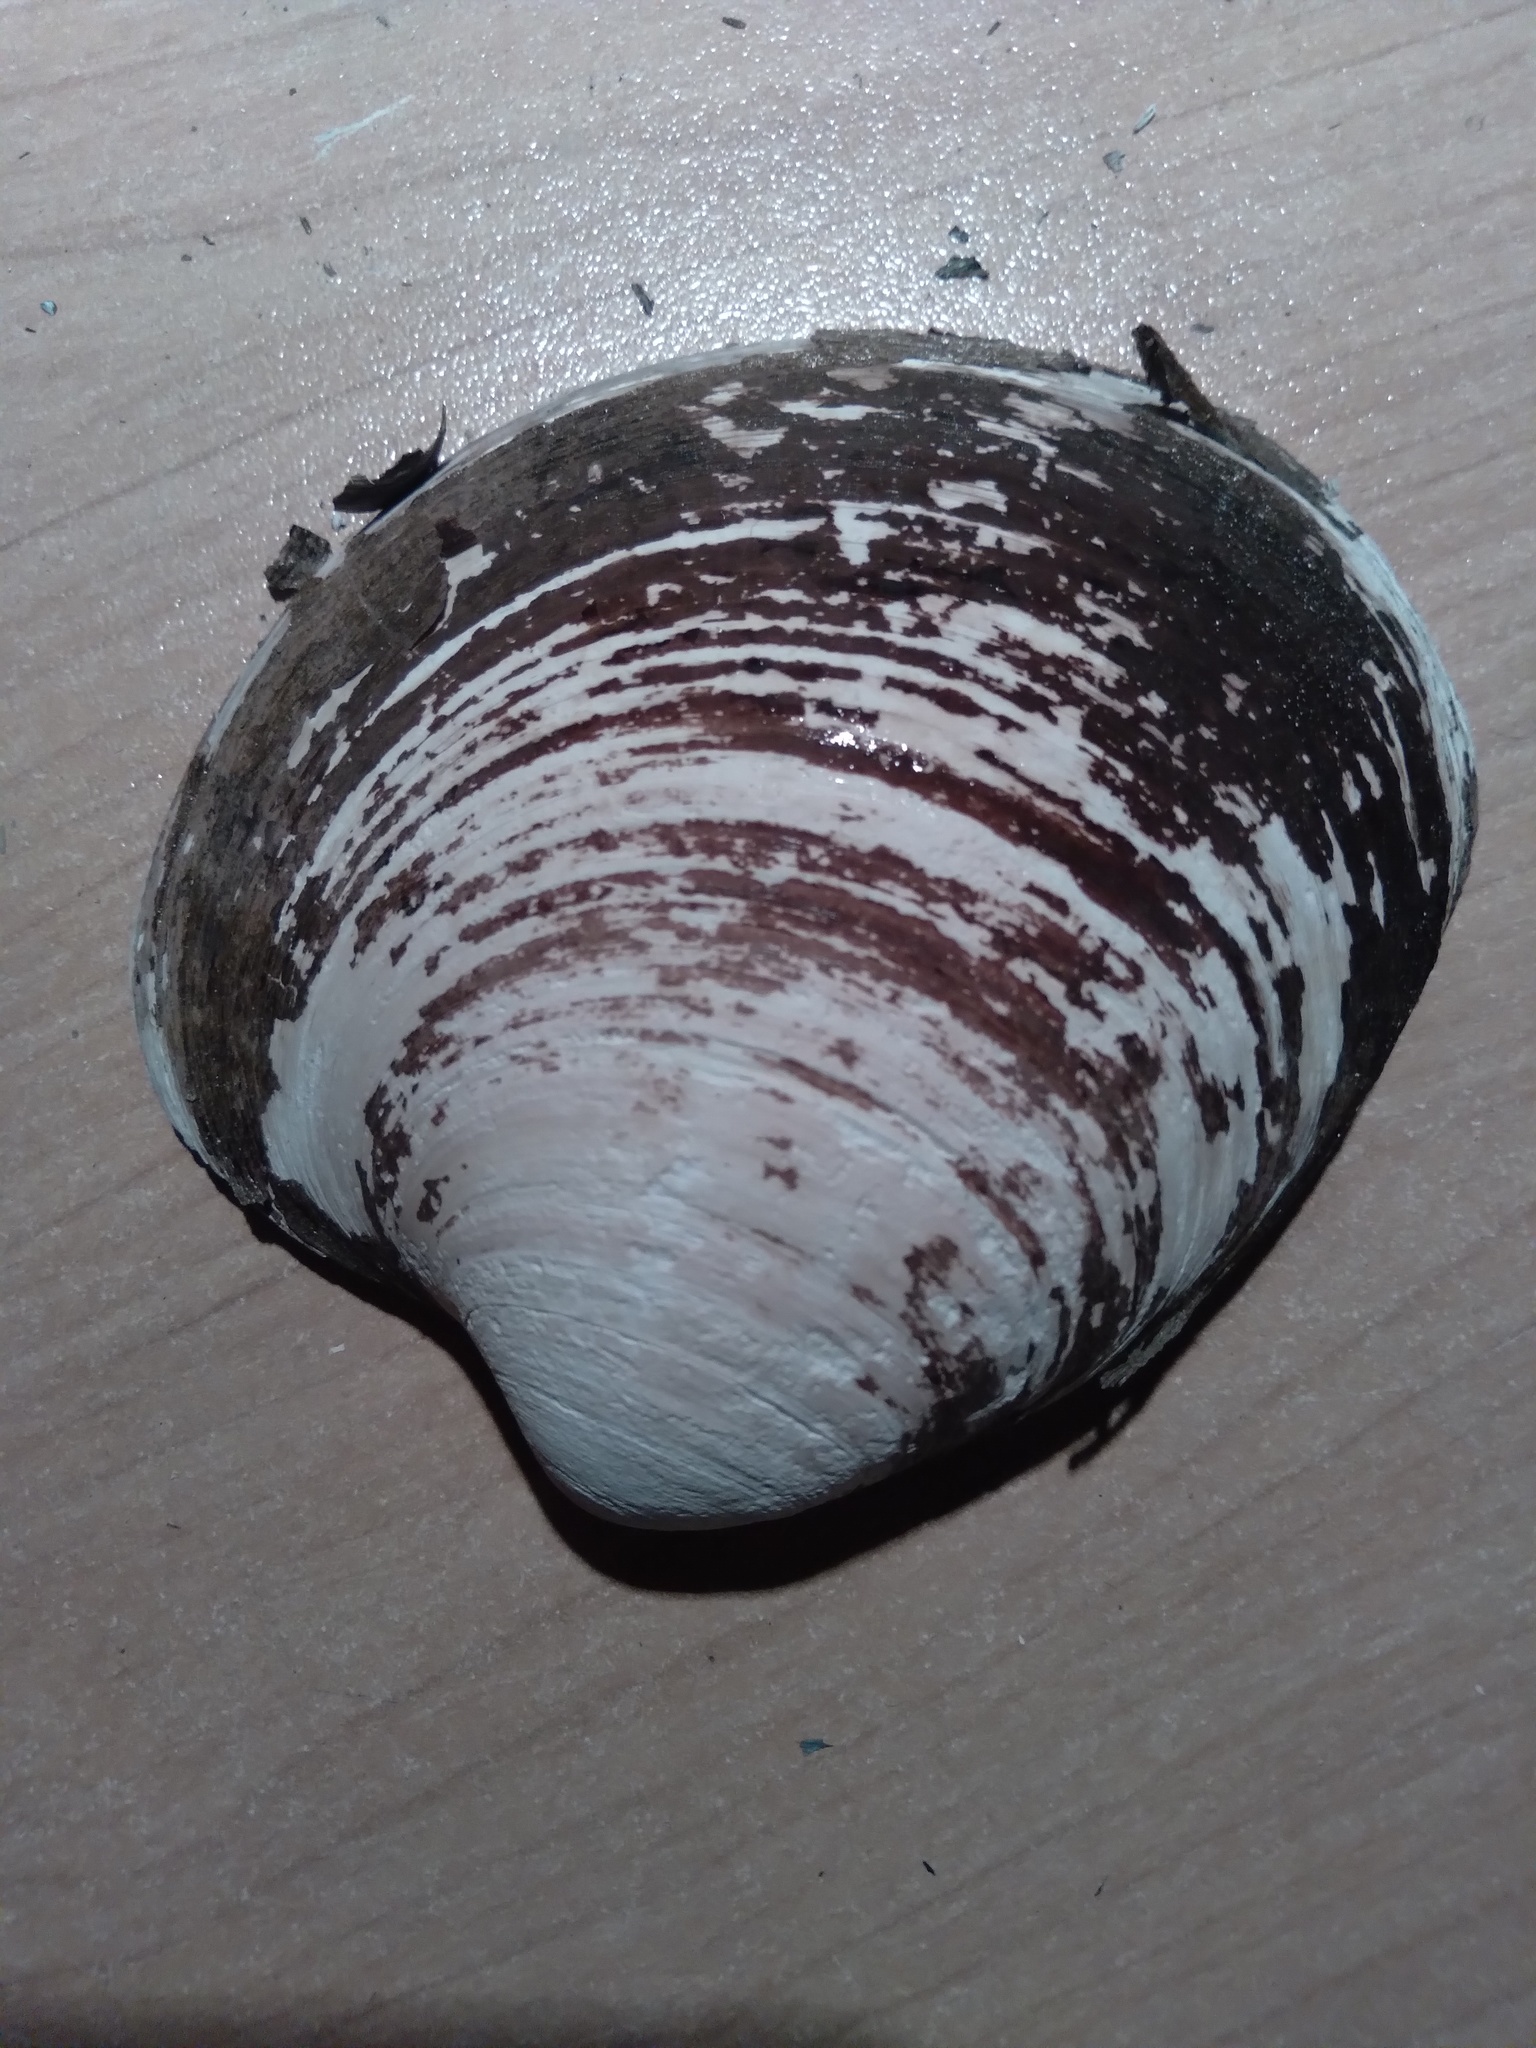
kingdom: Animalia
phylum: Mollusca
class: Bivalvia
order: Venerida
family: Arcticidae
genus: Arctica
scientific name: Arctica islandica
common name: Icelandic cyprine
